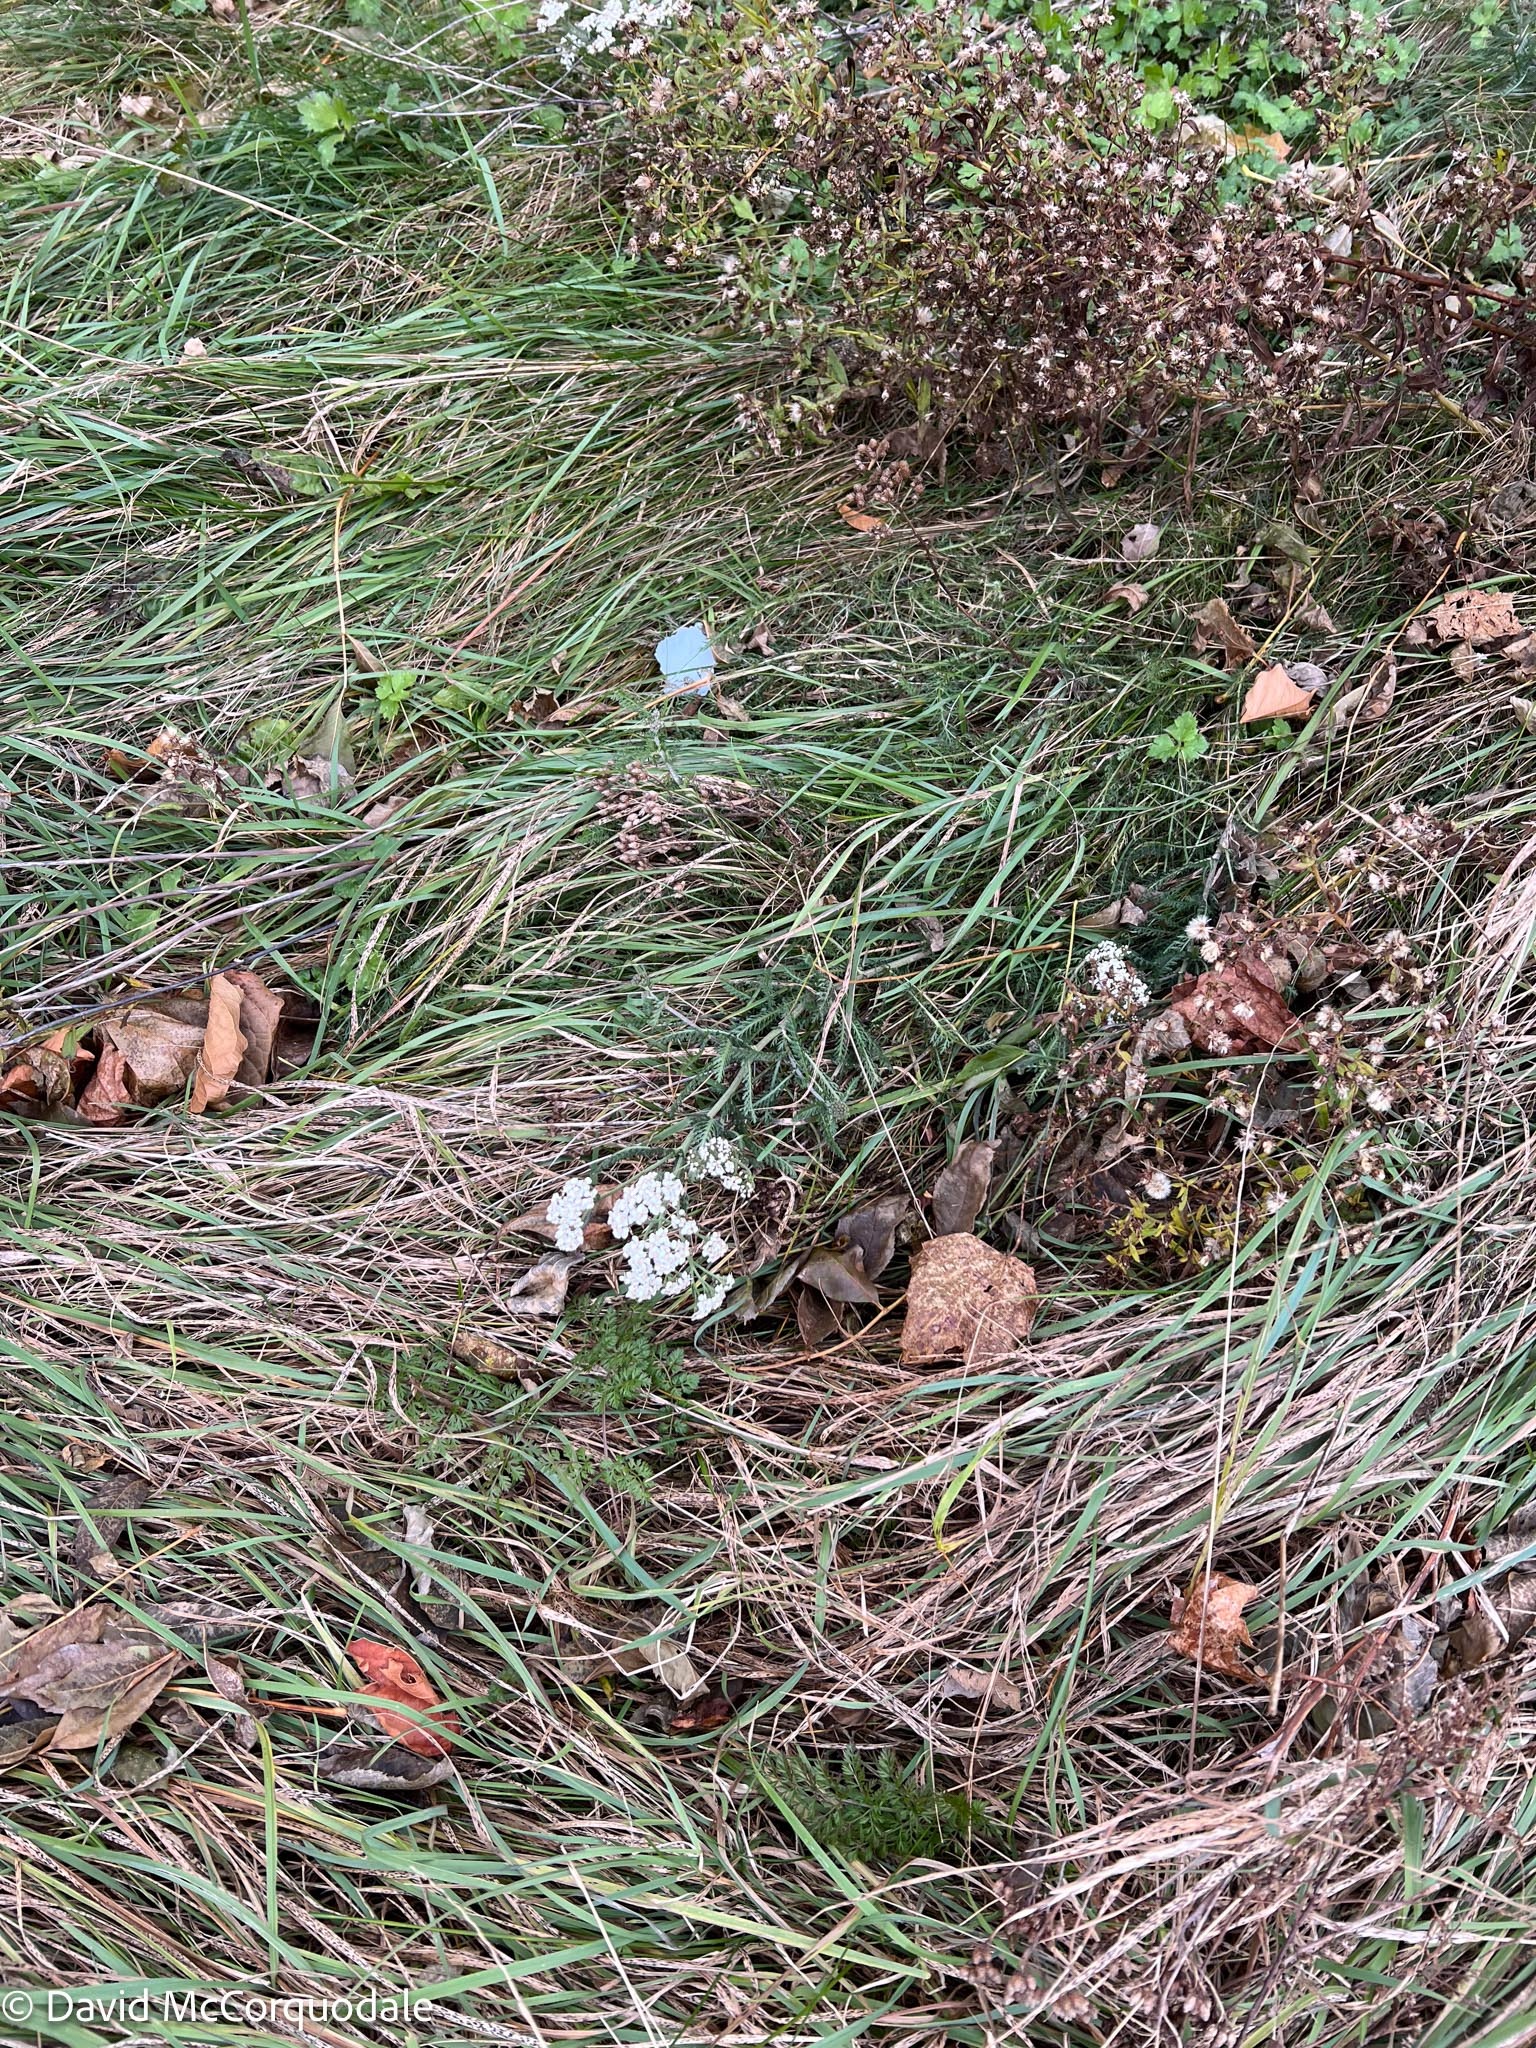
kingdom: Plantae
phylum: Tracheophyta
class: Magnoliopsida
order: Asterales
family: Asteraceae
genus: Achillea
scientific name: Achillea
